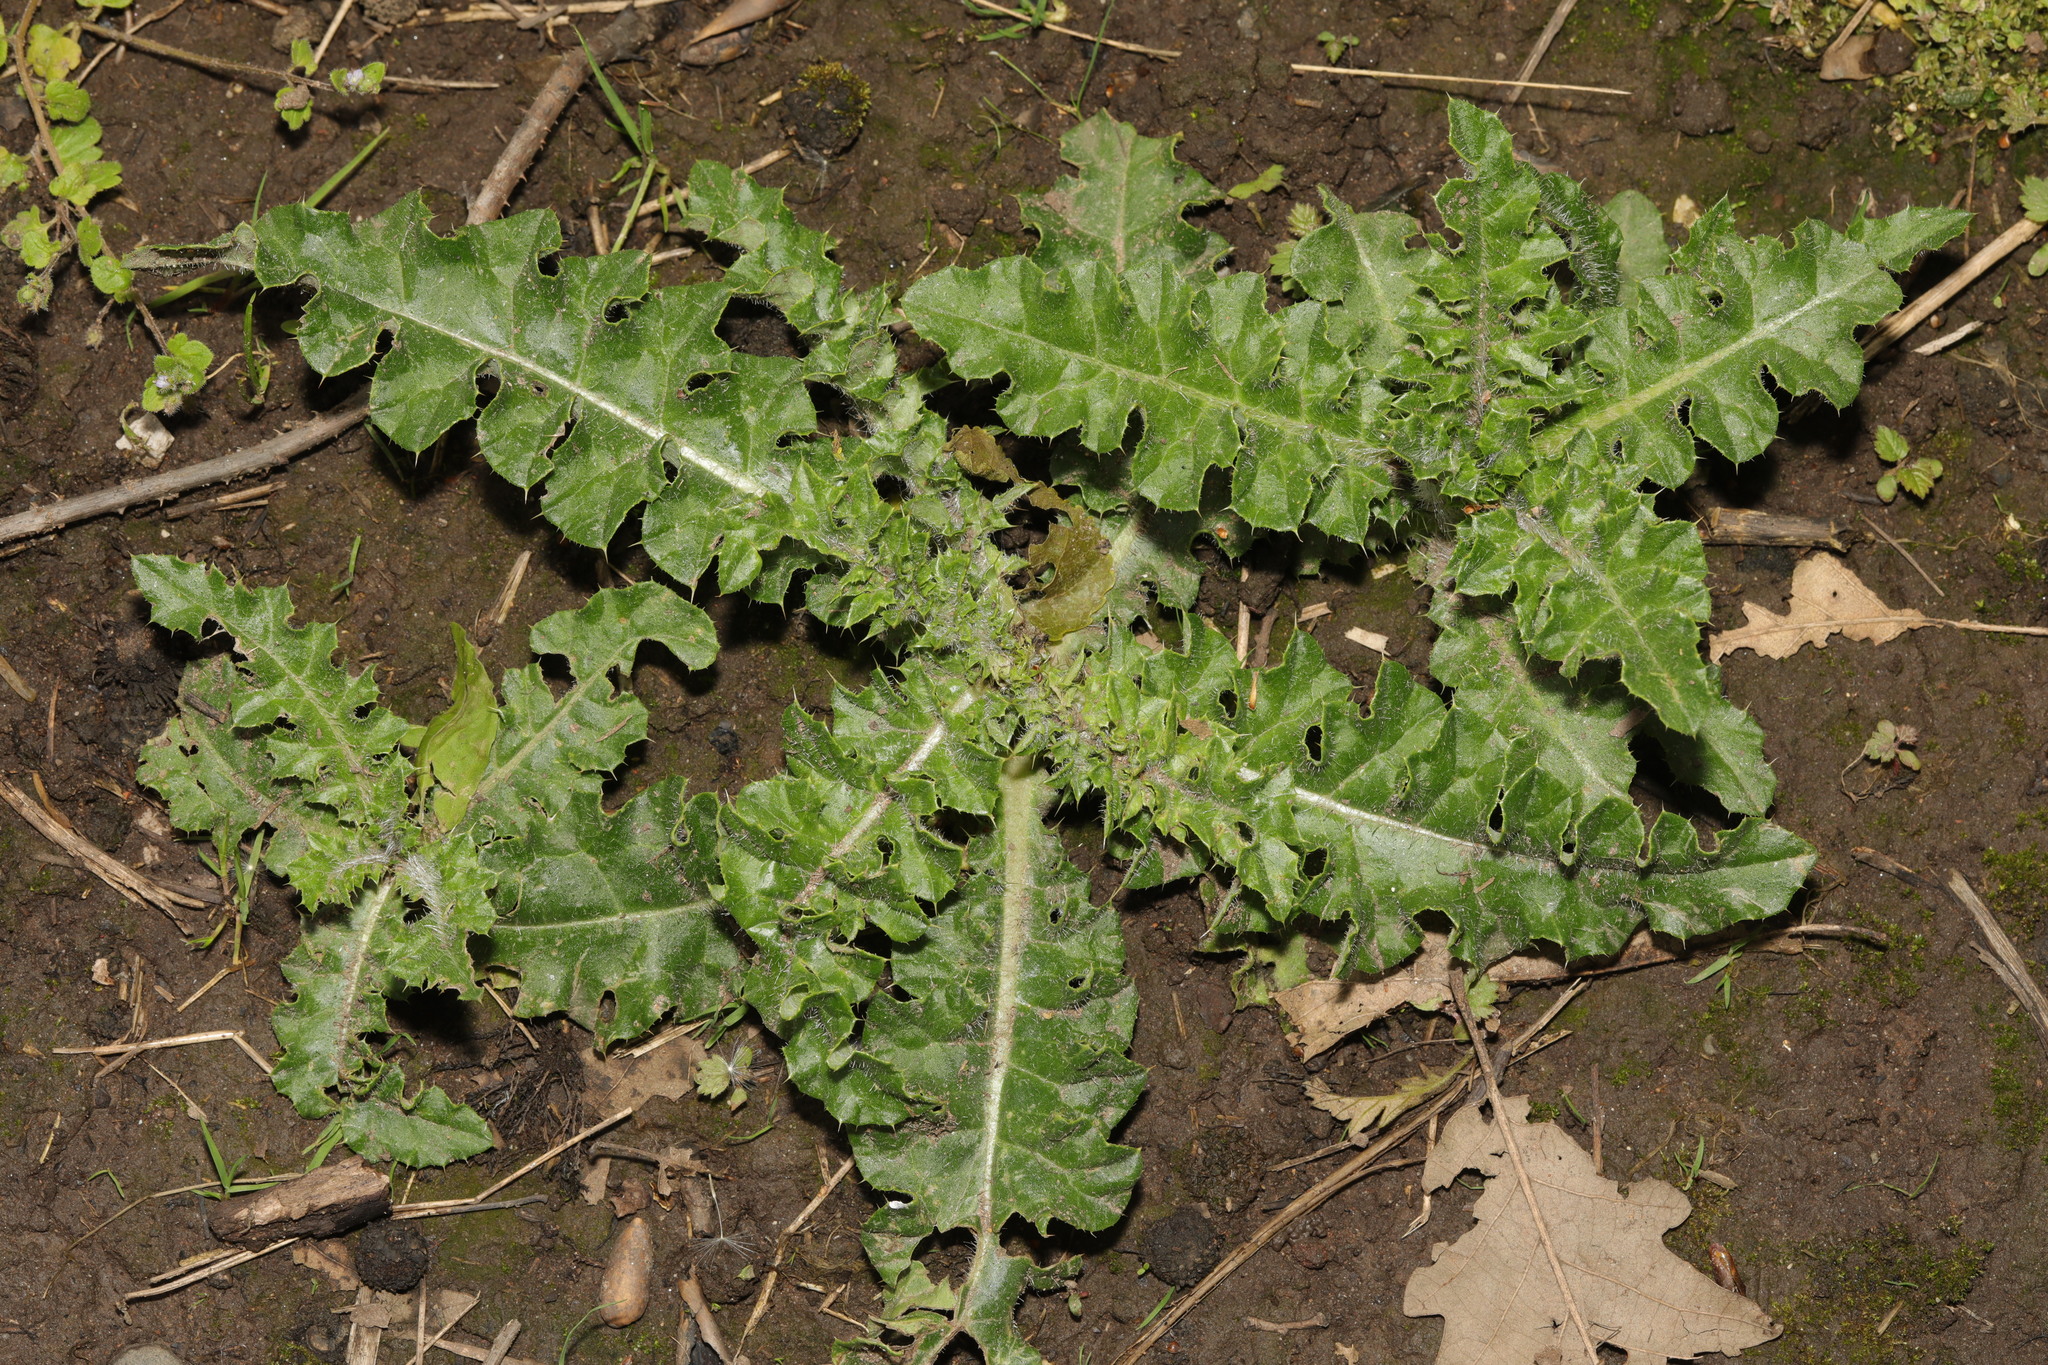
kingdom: Plantae
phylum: Tracheophyta
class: Magnoliopsida
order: Asterales
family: Asteraceae
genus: Cirsium
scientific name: Cirsium arvense
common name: Creeping thistle
